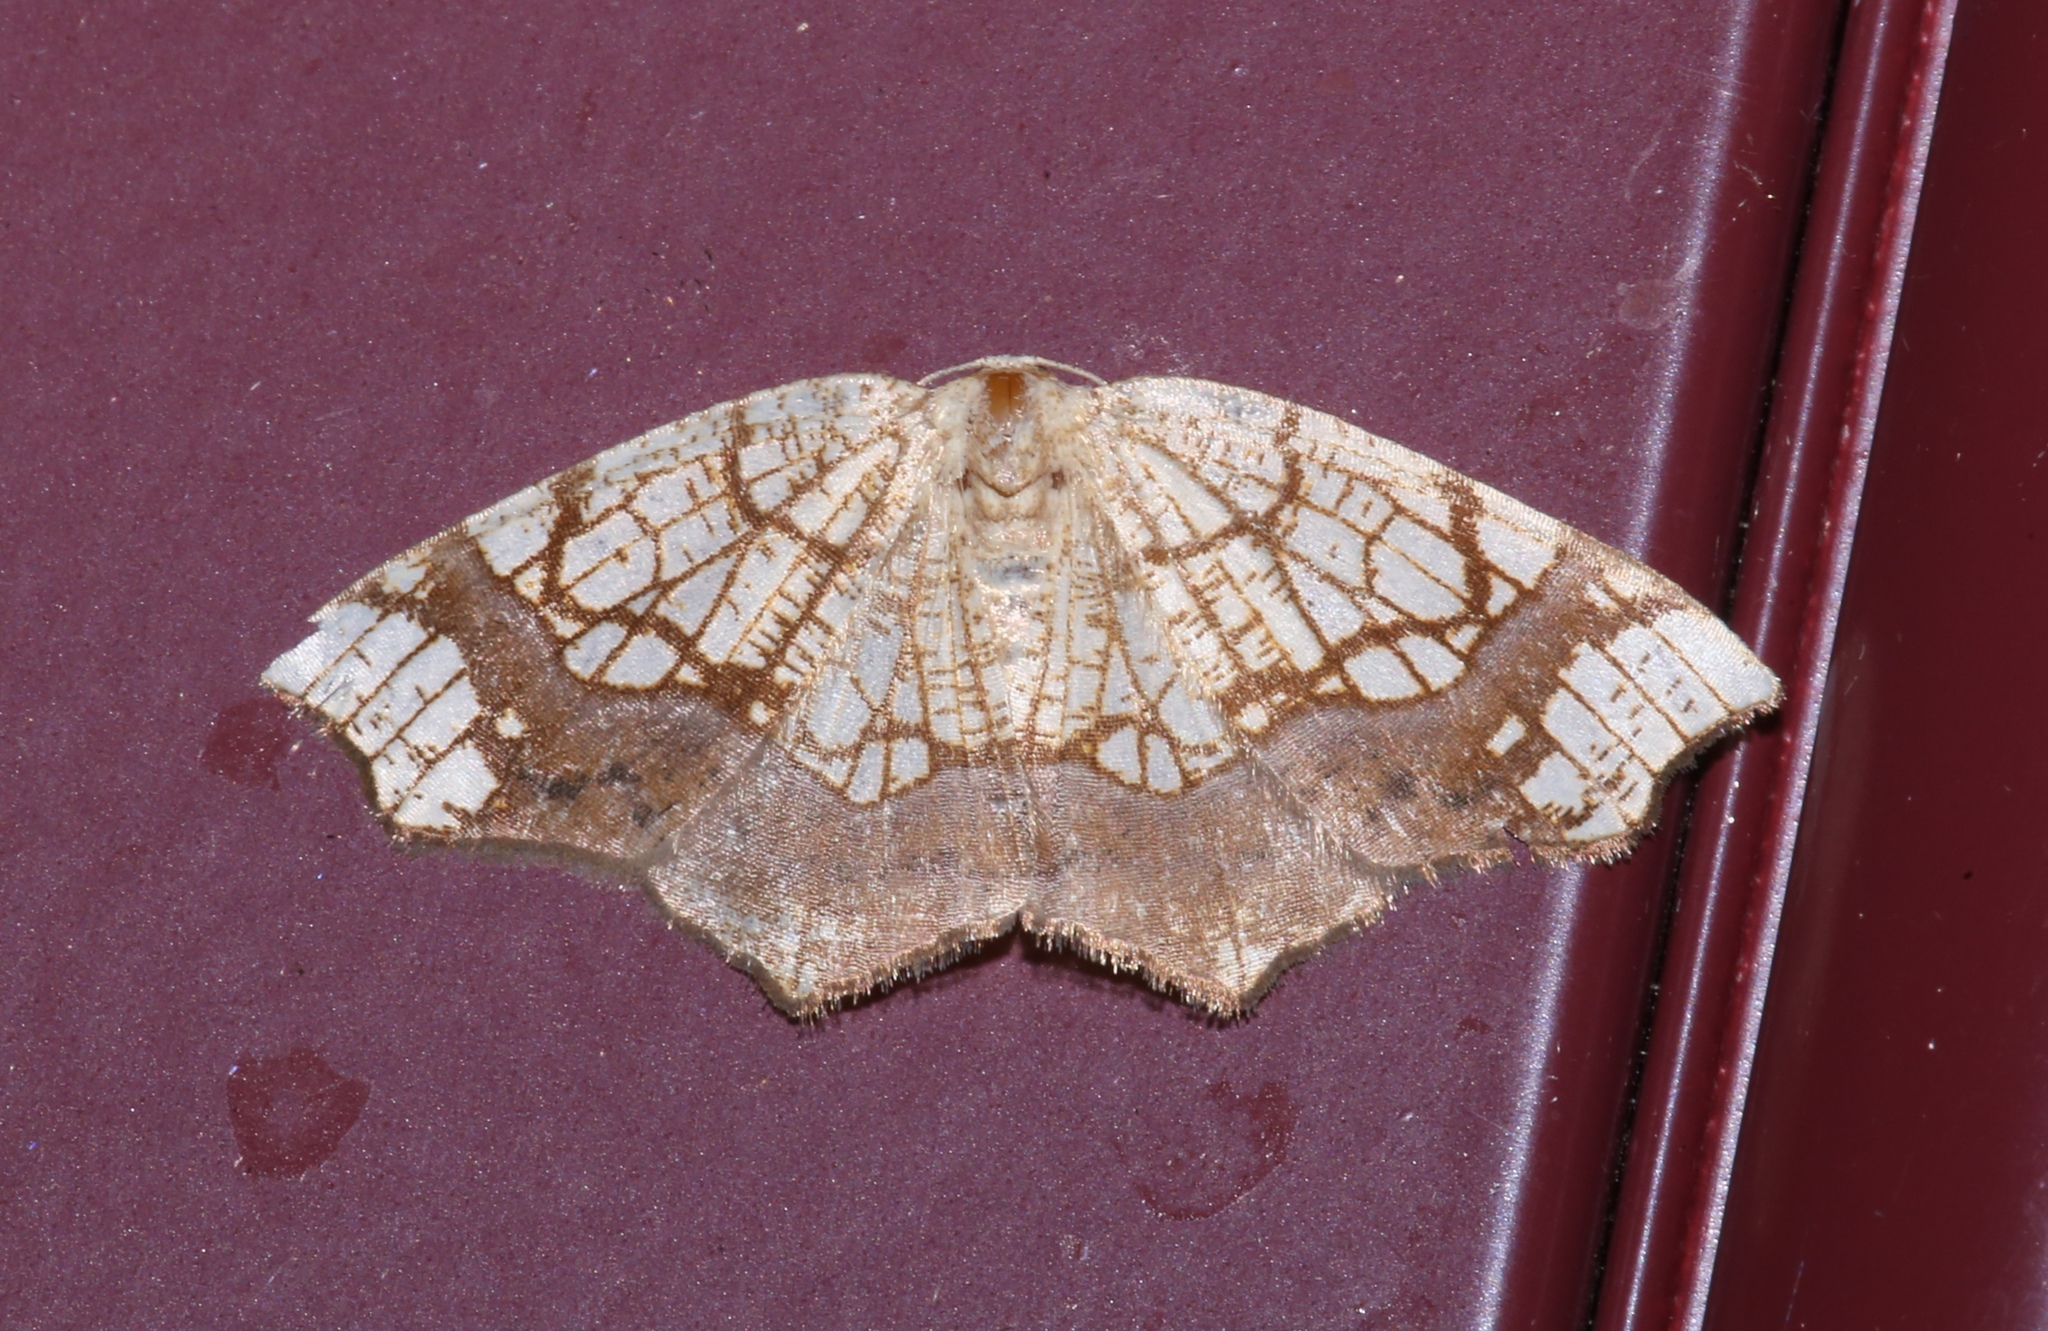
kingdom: Animalia
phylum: Arthropoda
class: Insecta
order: Lepidoptera
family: Geometridae
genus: Nematocampa
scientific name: Nematocampa resistaria
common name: Horned spanworm moth
